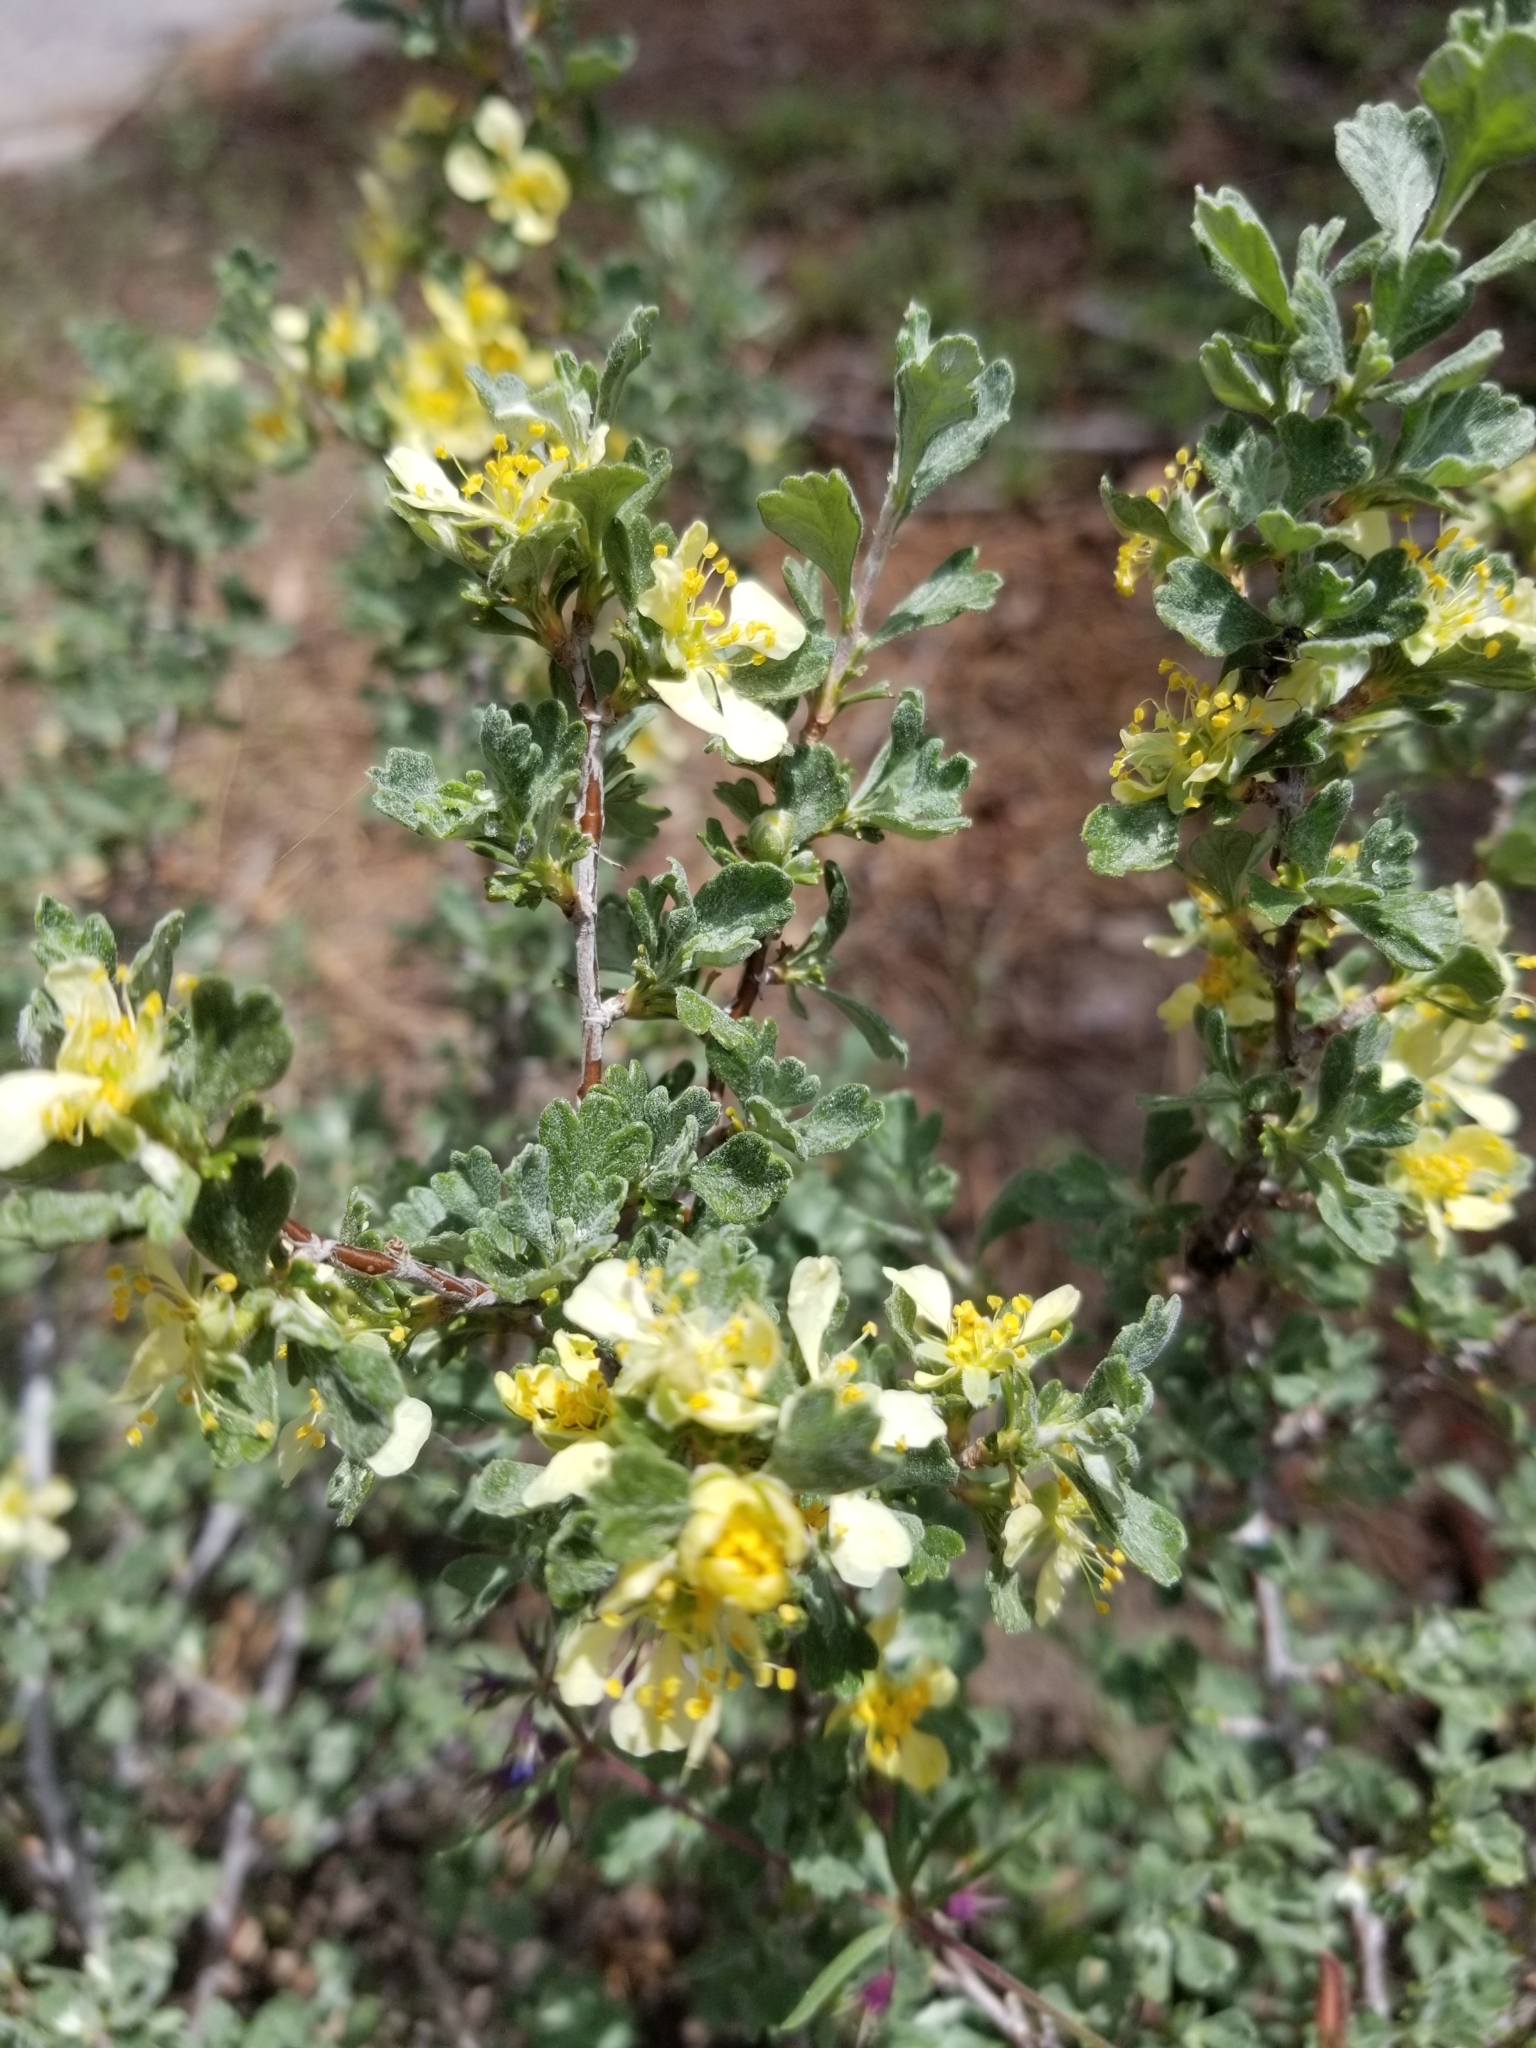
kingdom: Plantae
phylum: Tracheophyta
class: Magnoliopsida
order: Rosales
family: Rosaceae
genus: Purshia
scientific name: Purshia tridentata
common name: Antelope bitterbrush
